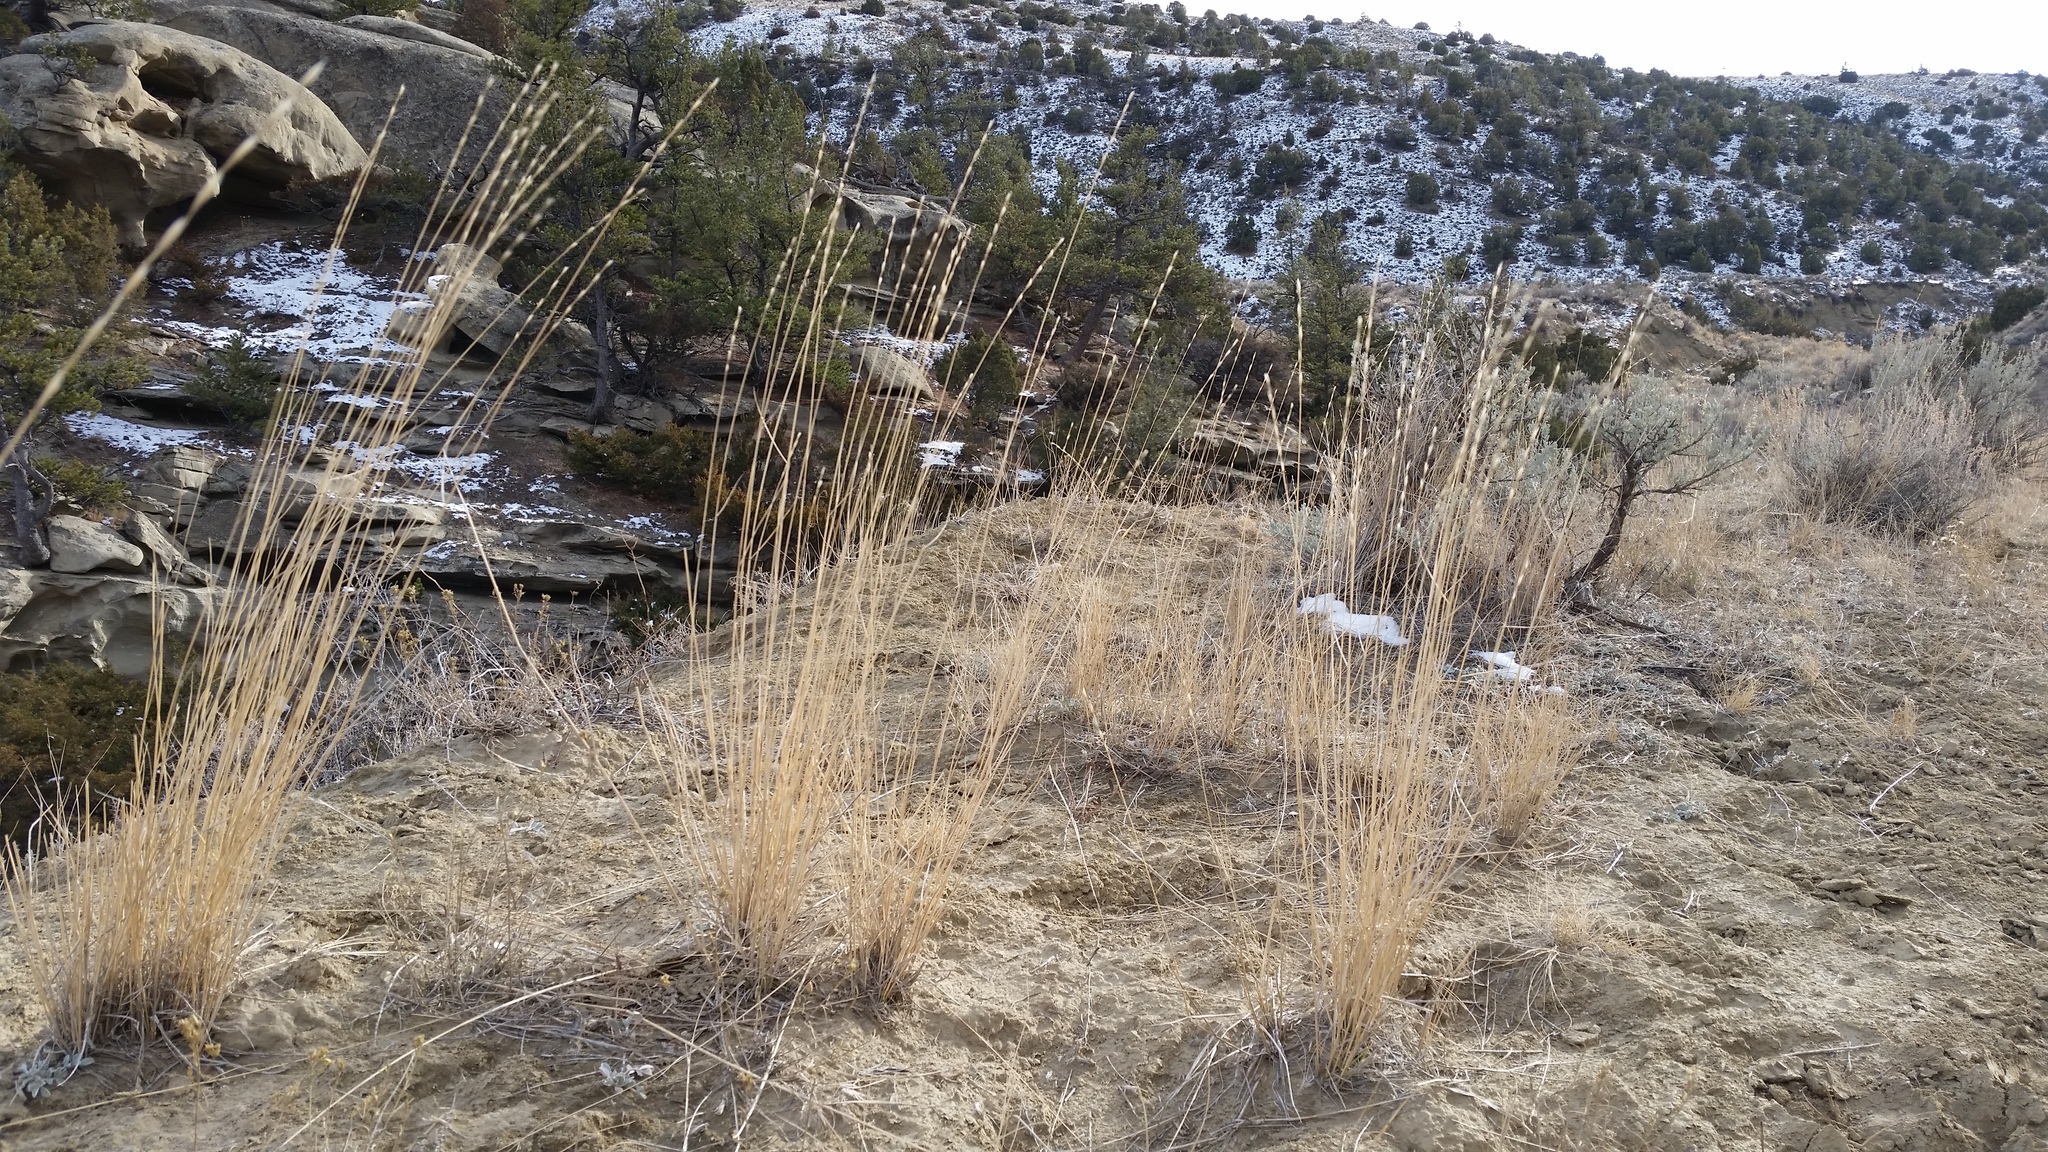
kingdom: Plantae
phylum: Tracheophyta
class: Liliopsida
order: Poales
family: Poaceae
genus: Pseudoroegneria
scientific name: Pseudoroegneria spicata
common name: Bluebunch wheatgrass
